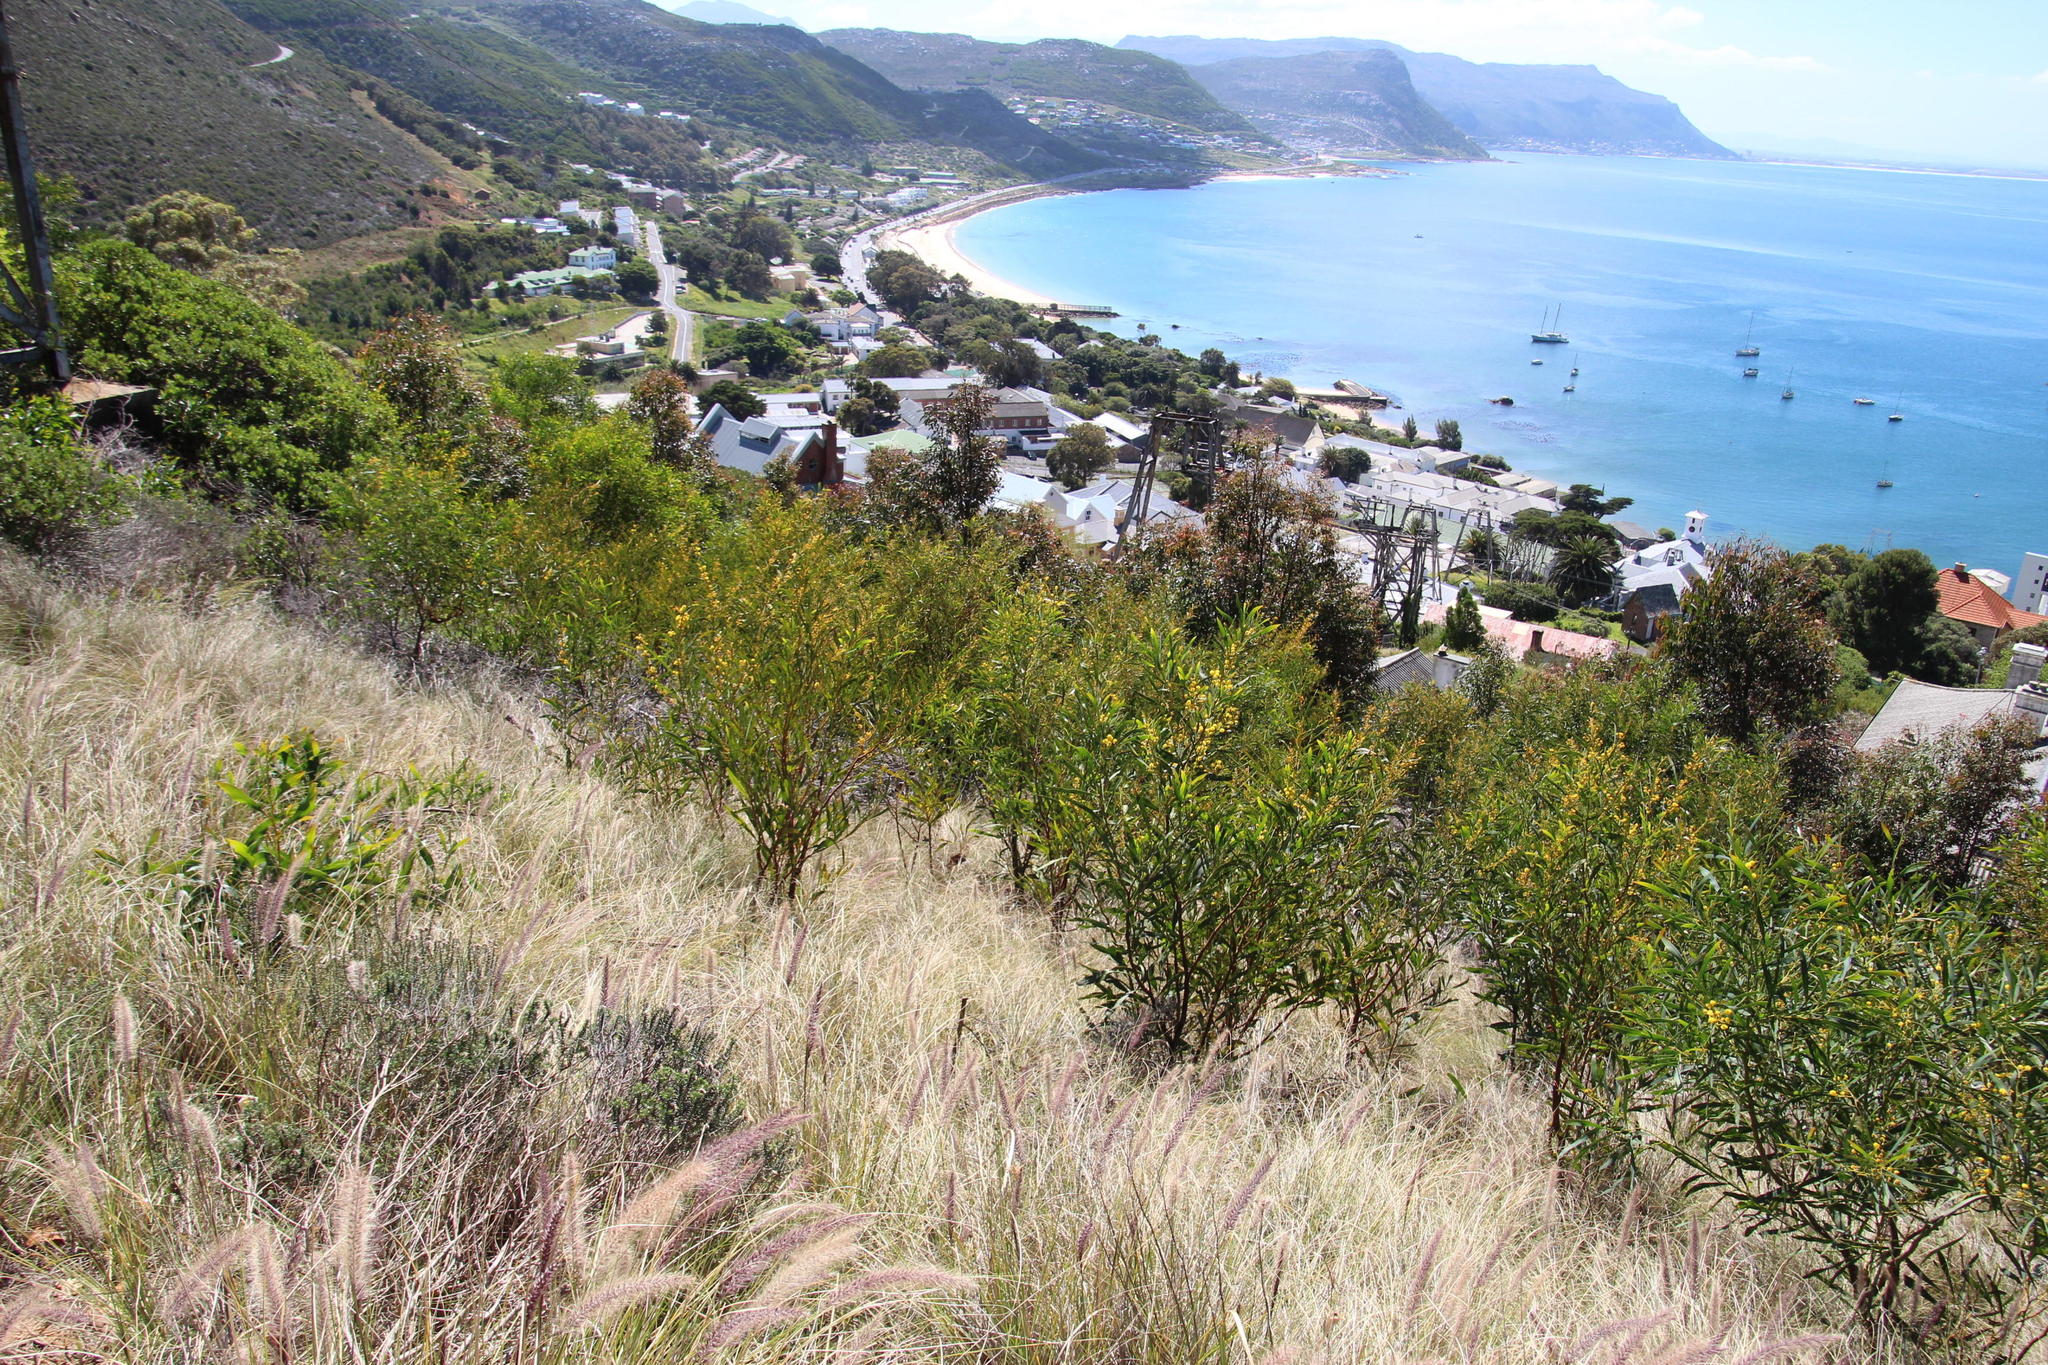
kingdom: Plantae
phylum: Tracheophyta
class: Magnoliopsida
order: Fabales
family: Fabaceae
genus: Acacia
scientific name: Acacia saligna
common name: Orange wattle
